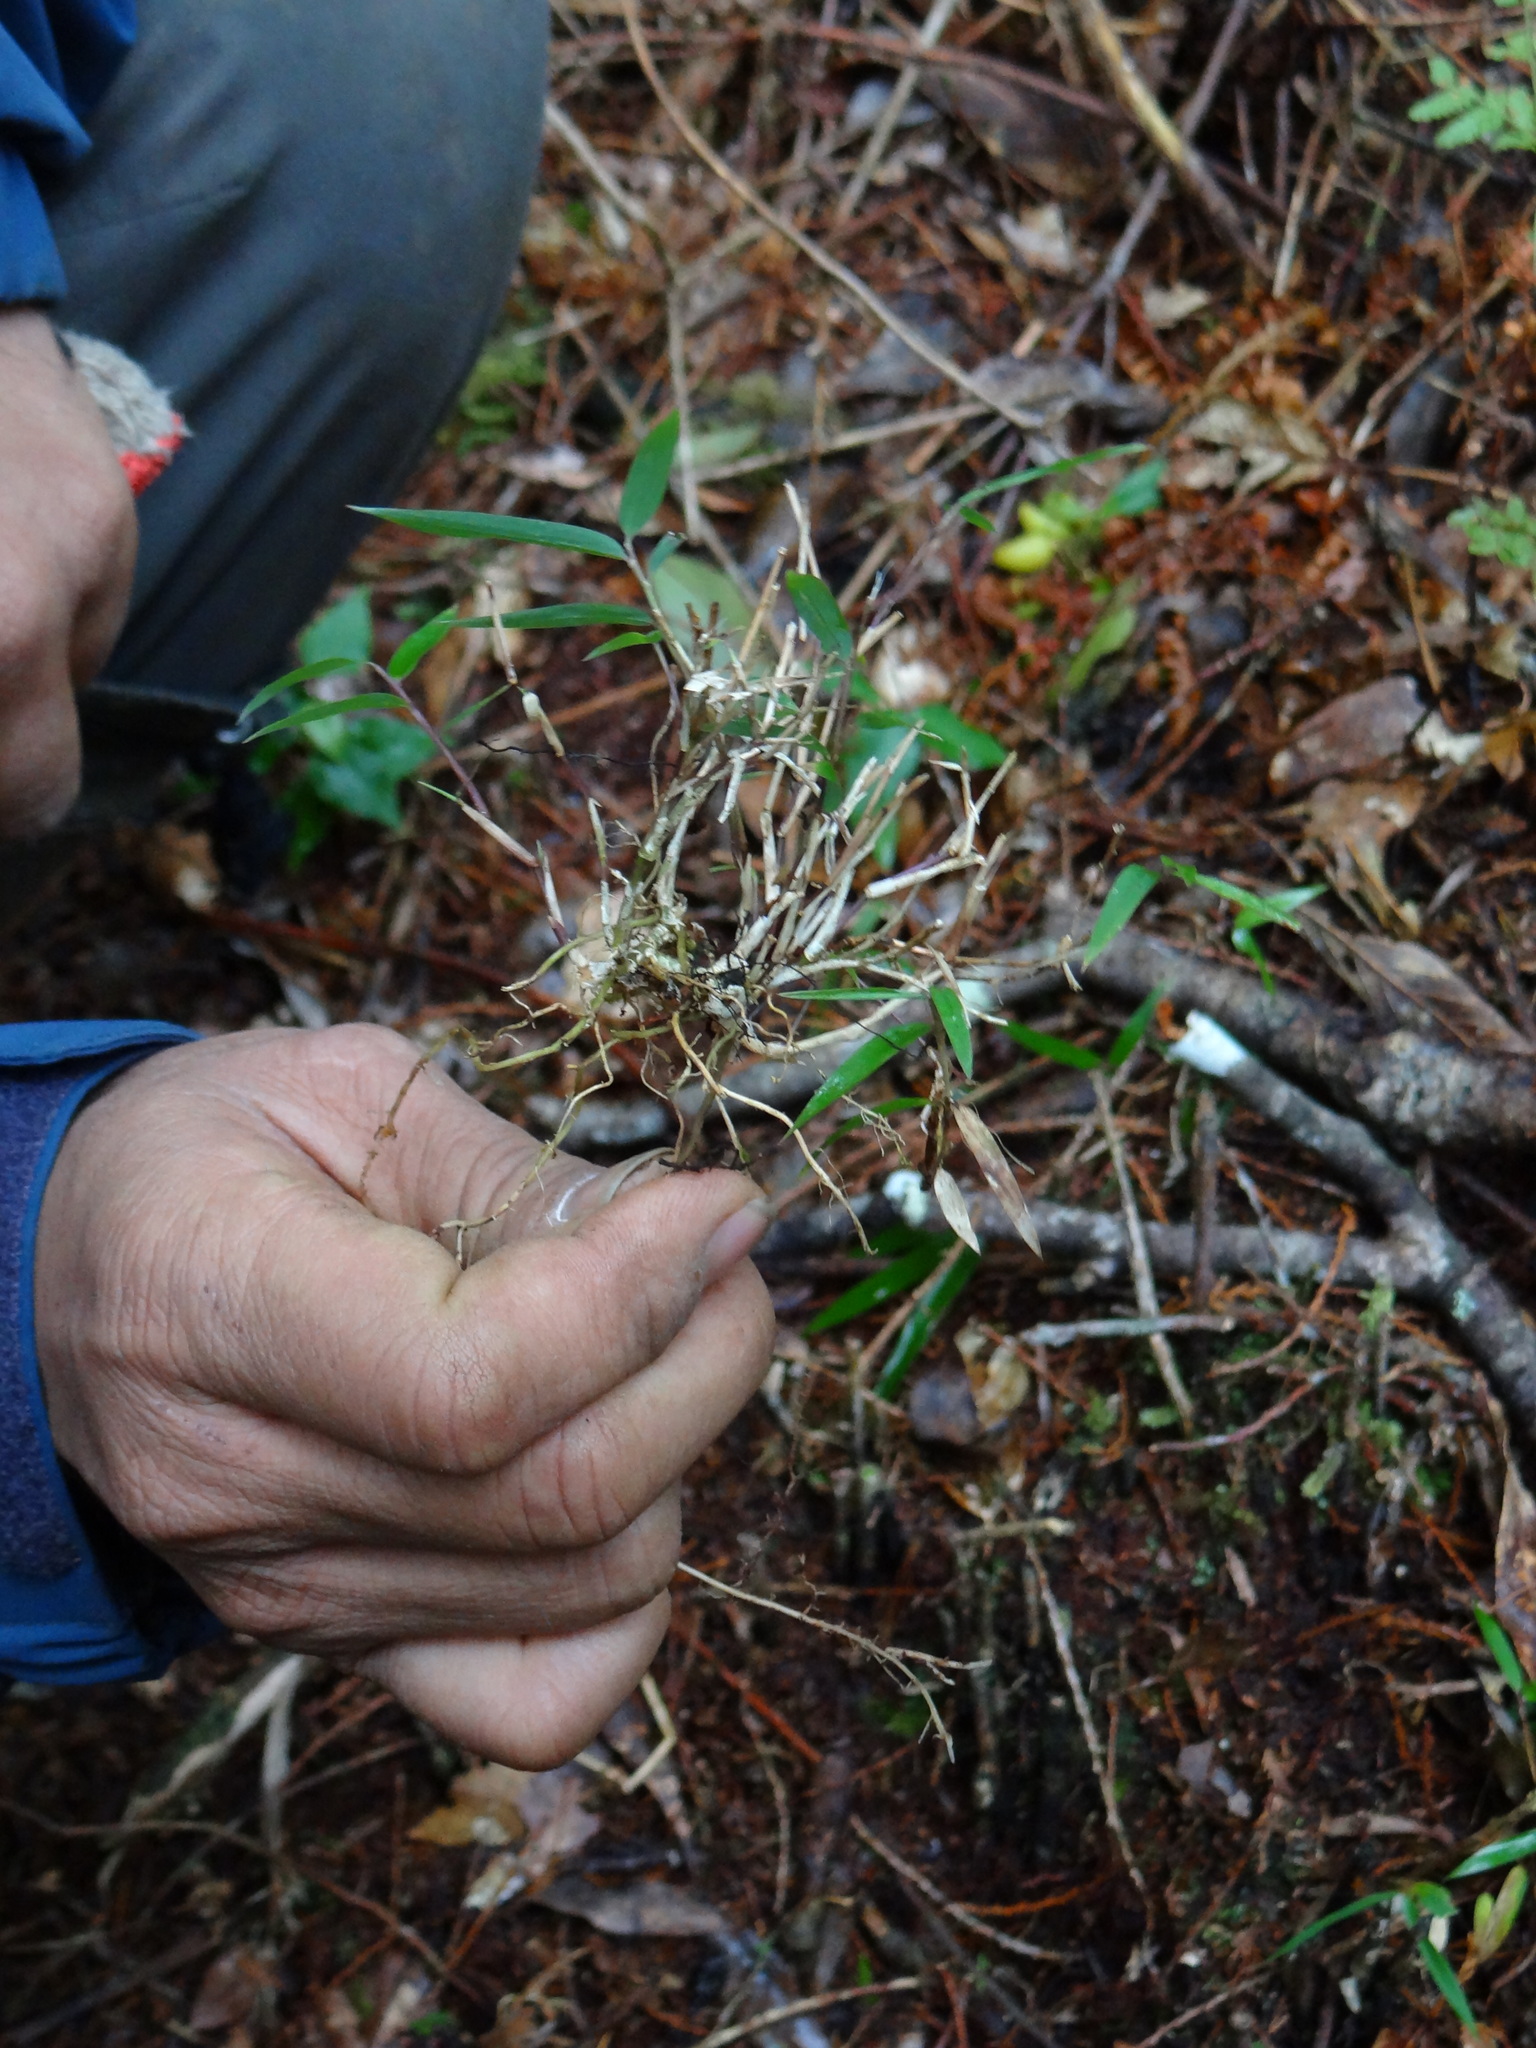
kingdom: Plantae
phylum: Tracheophyta
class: Liliopsida
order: Poales
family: Poaceae
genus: Yushania
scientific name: Yushania niitakayamensis
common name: Yushan cane
